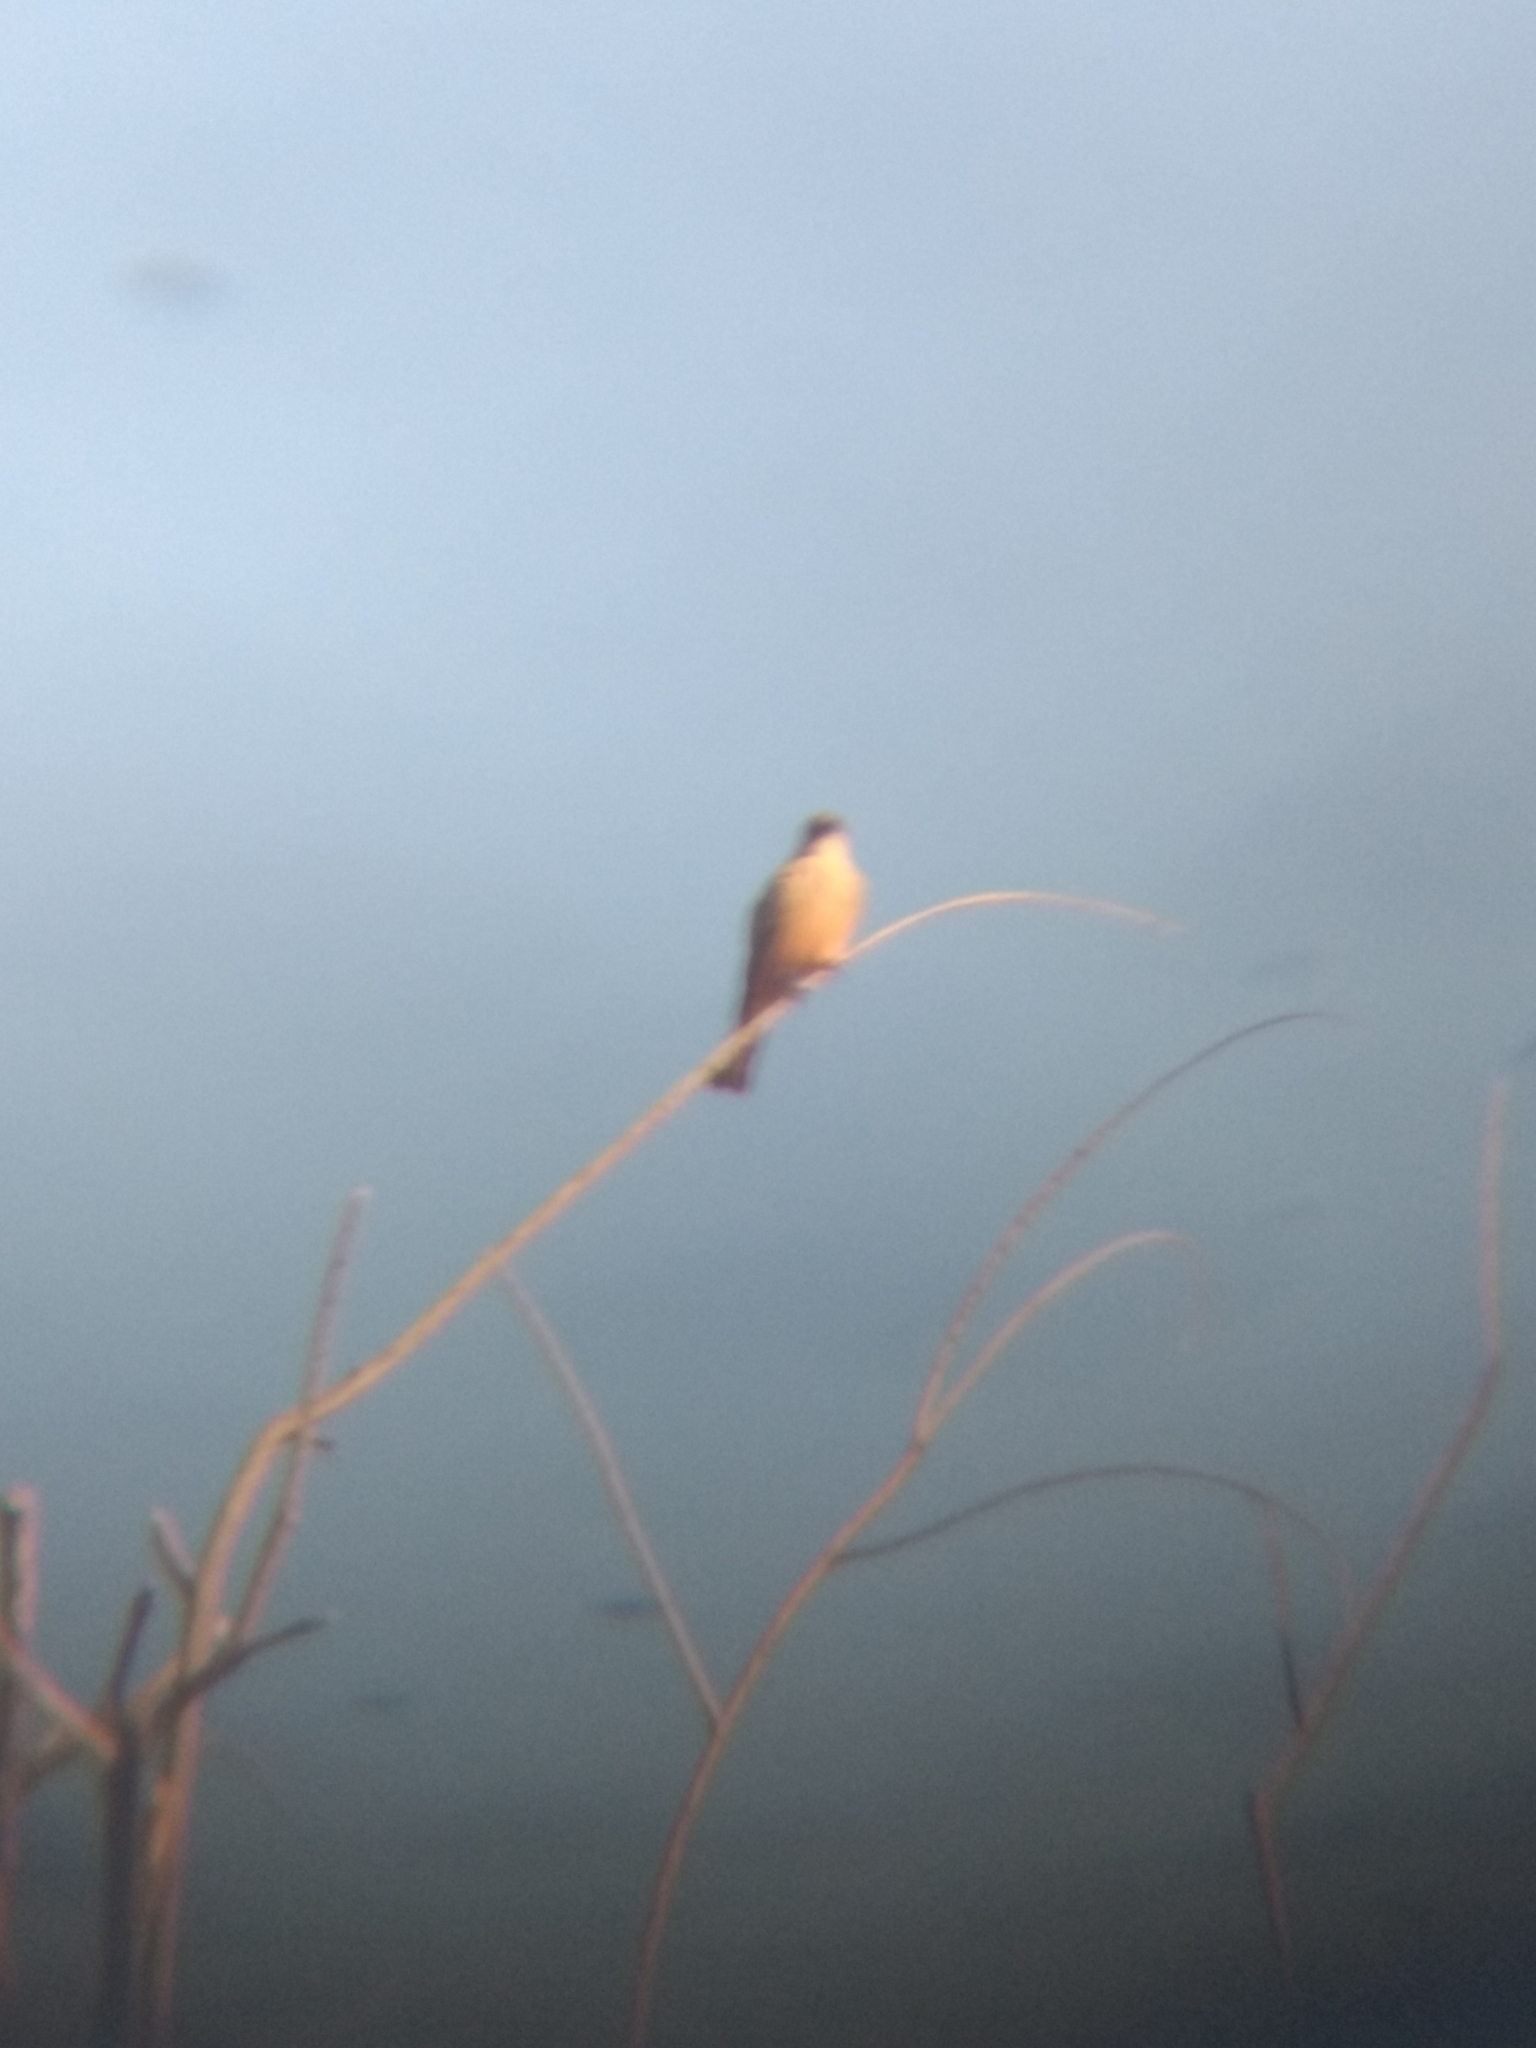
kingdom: Animalia
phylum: Chordata
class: Aves
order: Passeriformes
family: Tyrannidae
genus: Sayornis
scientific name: Sayornis saya
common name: Say's phoebe
